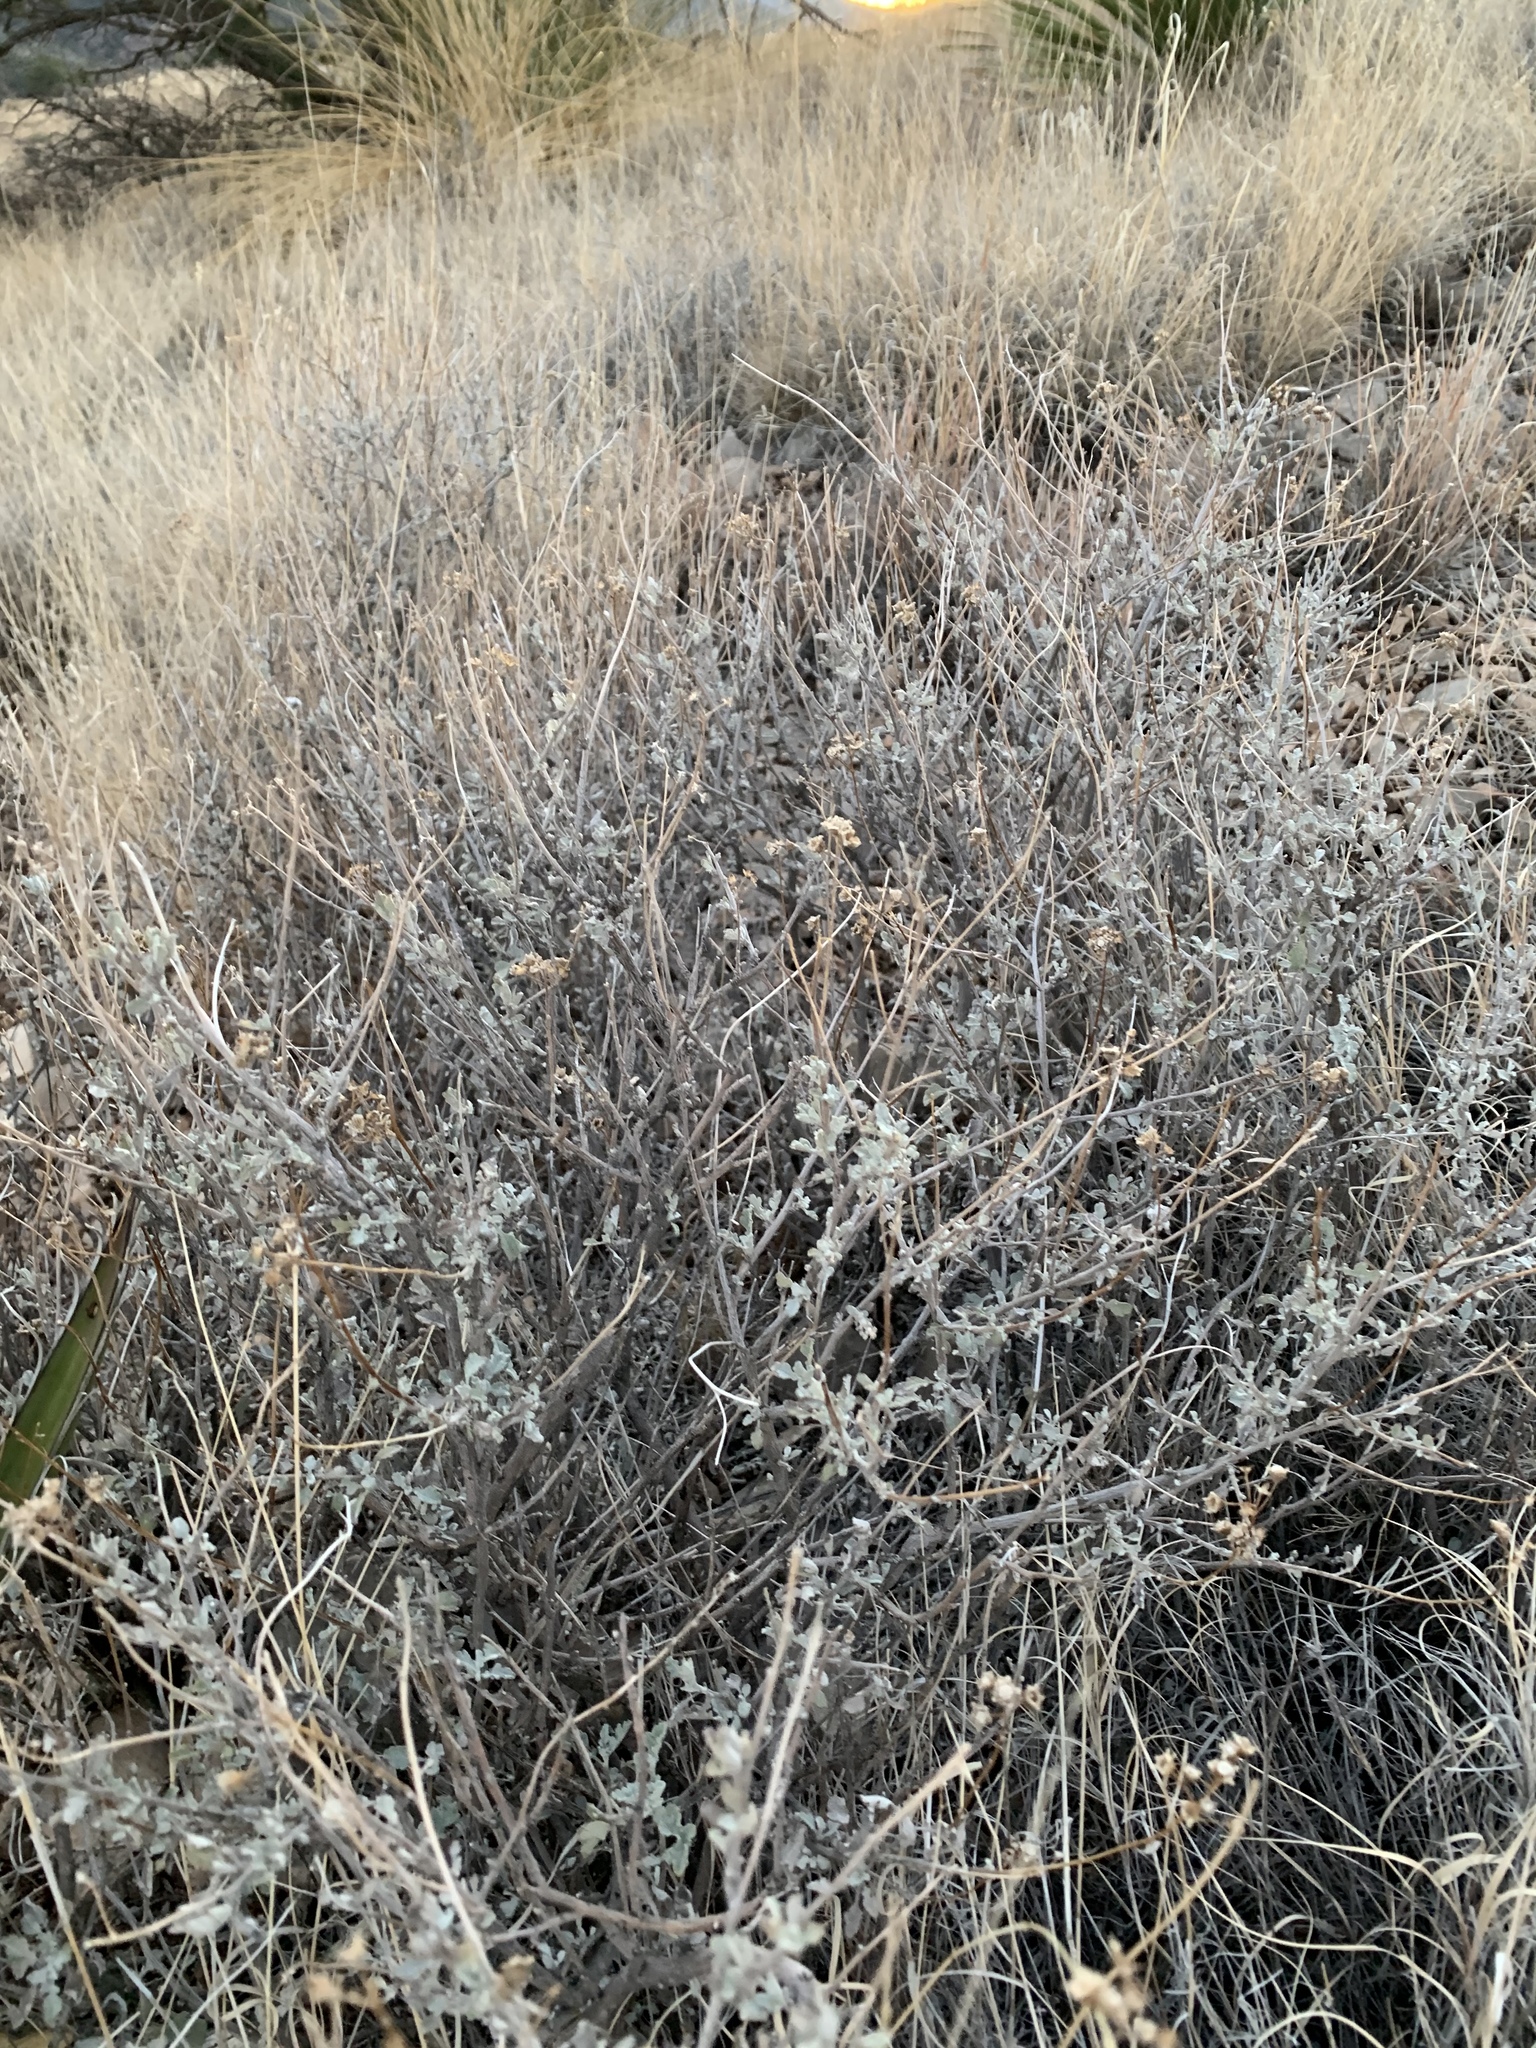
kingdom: Plantae
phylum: Tracheophyta
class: Magnoliopsida
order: Asterales
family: Asteraceae
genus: Parthenium
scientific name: Parthenium incanum
